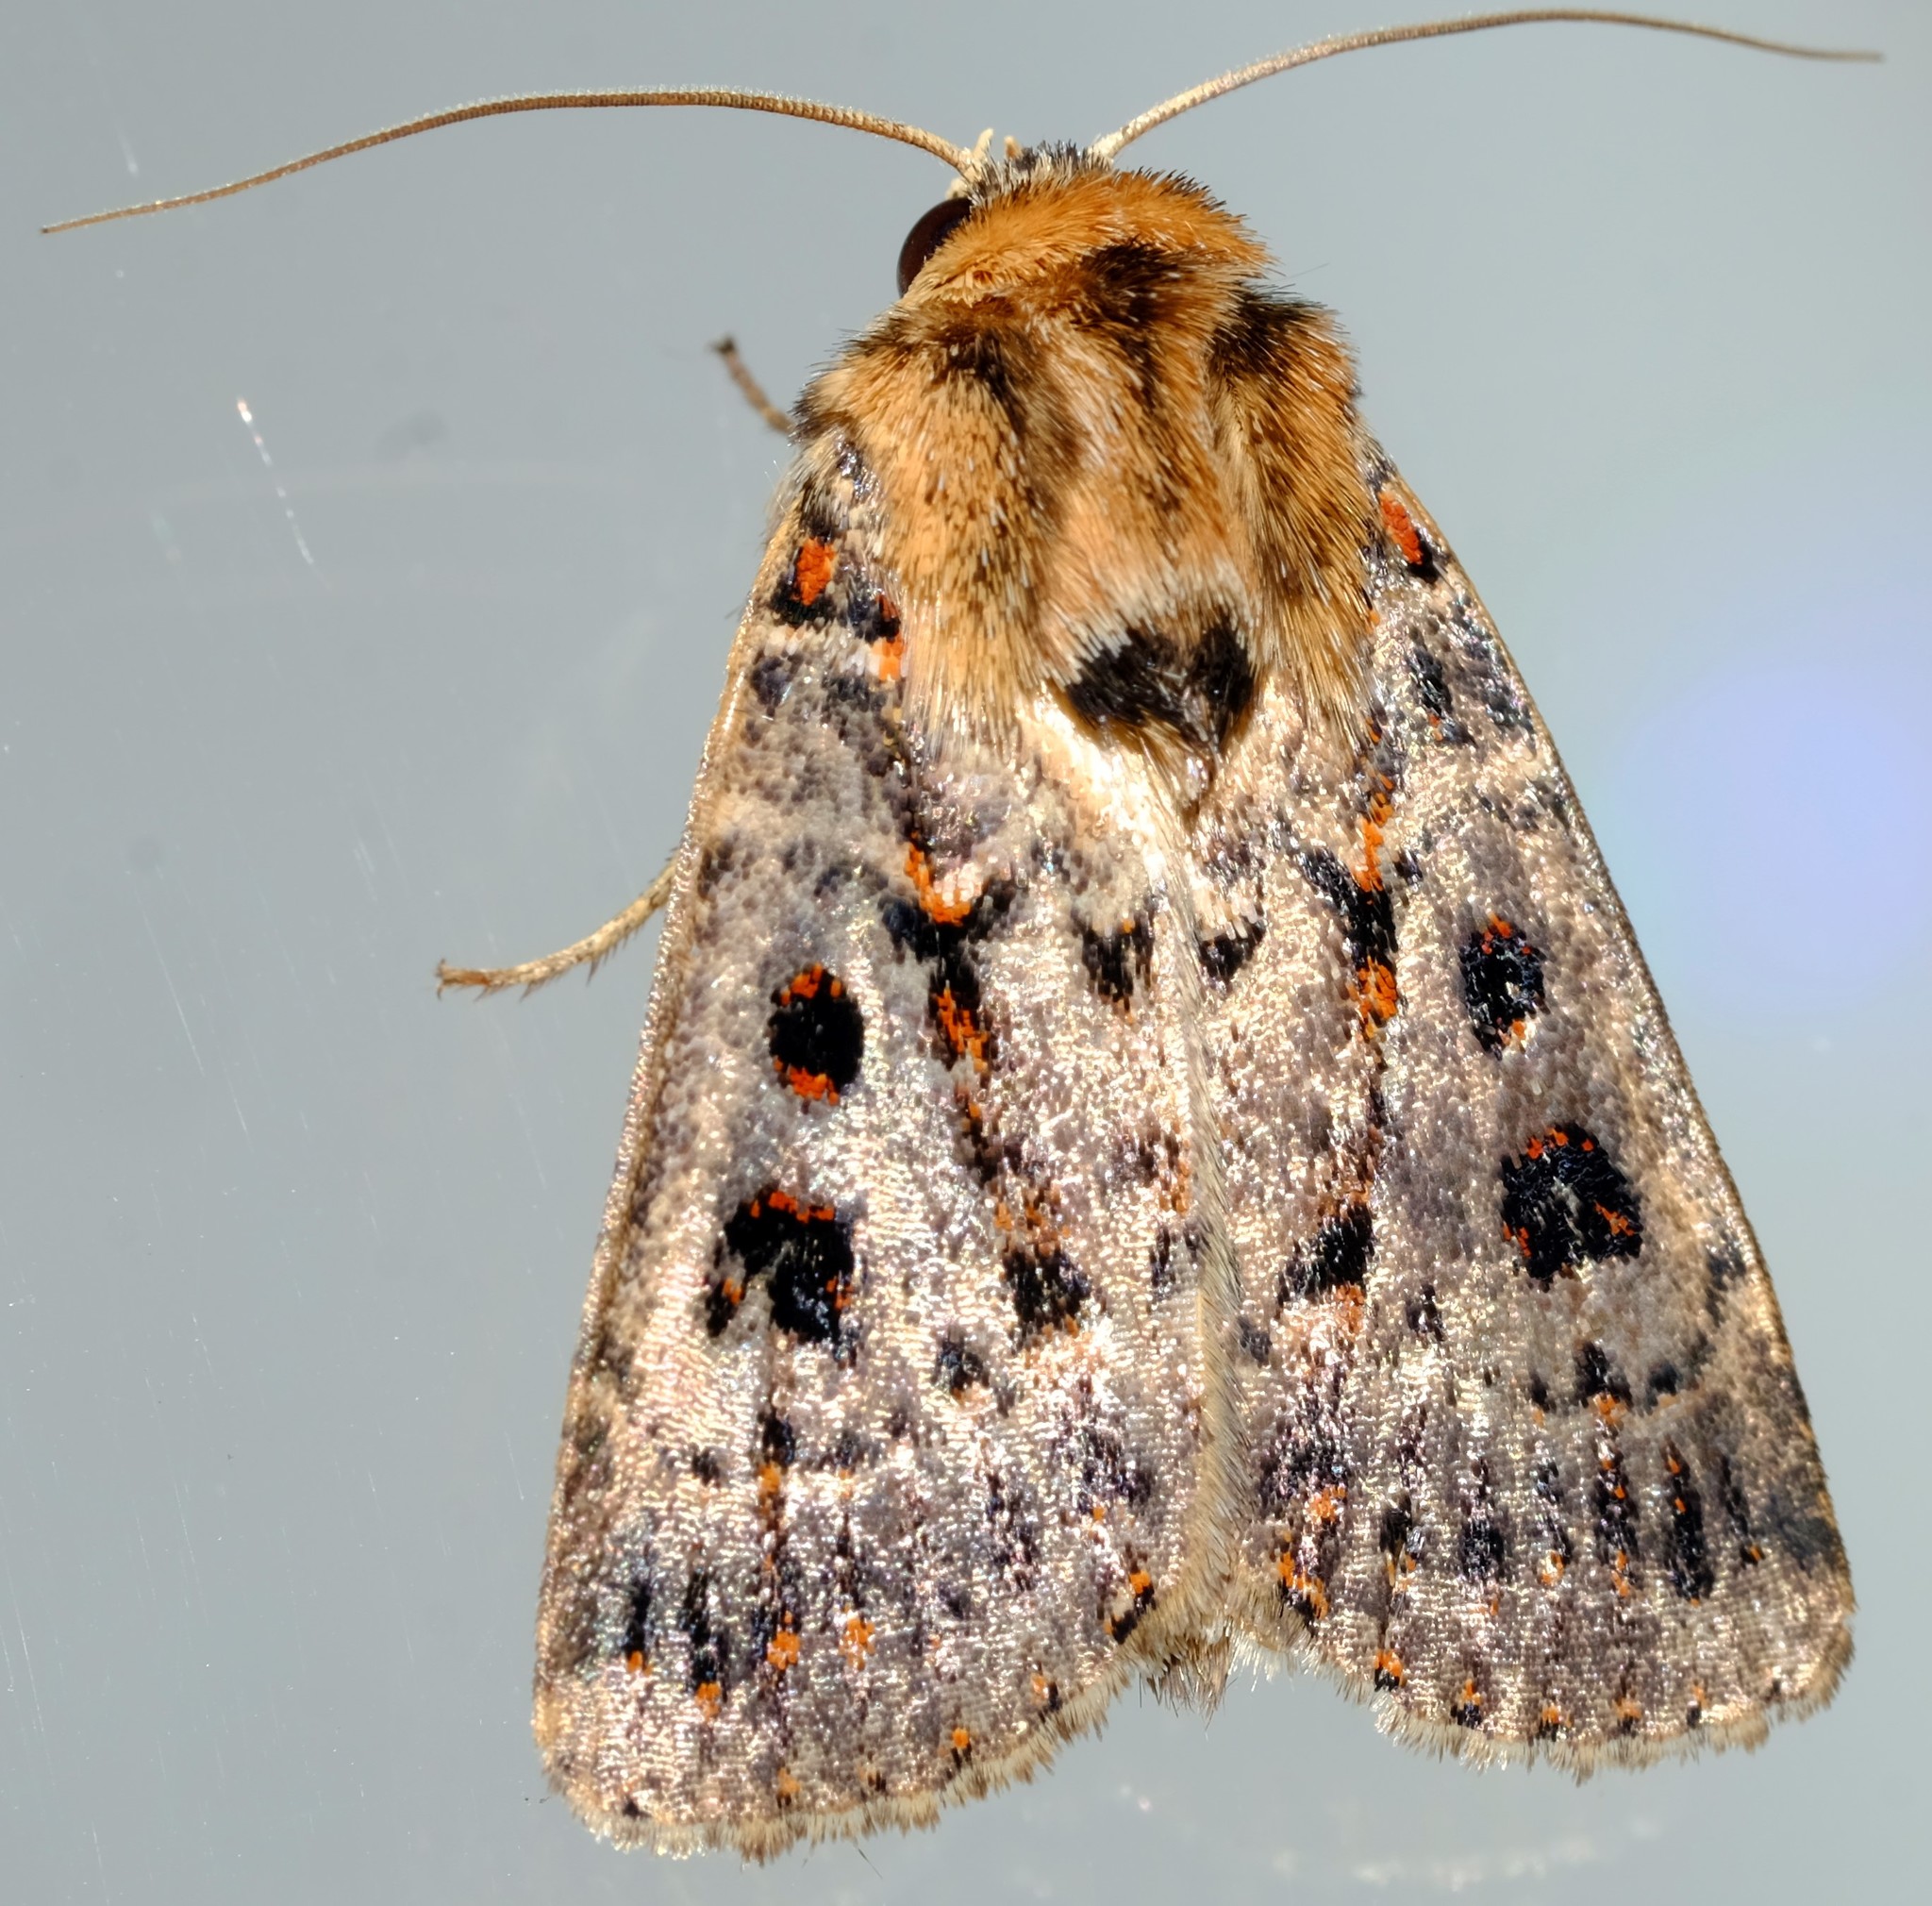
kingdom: Animalia
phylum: Arthropoda
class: Insecta
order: Lepidoptera
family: Noctuidae
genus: Proteuxoa
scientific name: Proteuxoa sanguinipuncta
